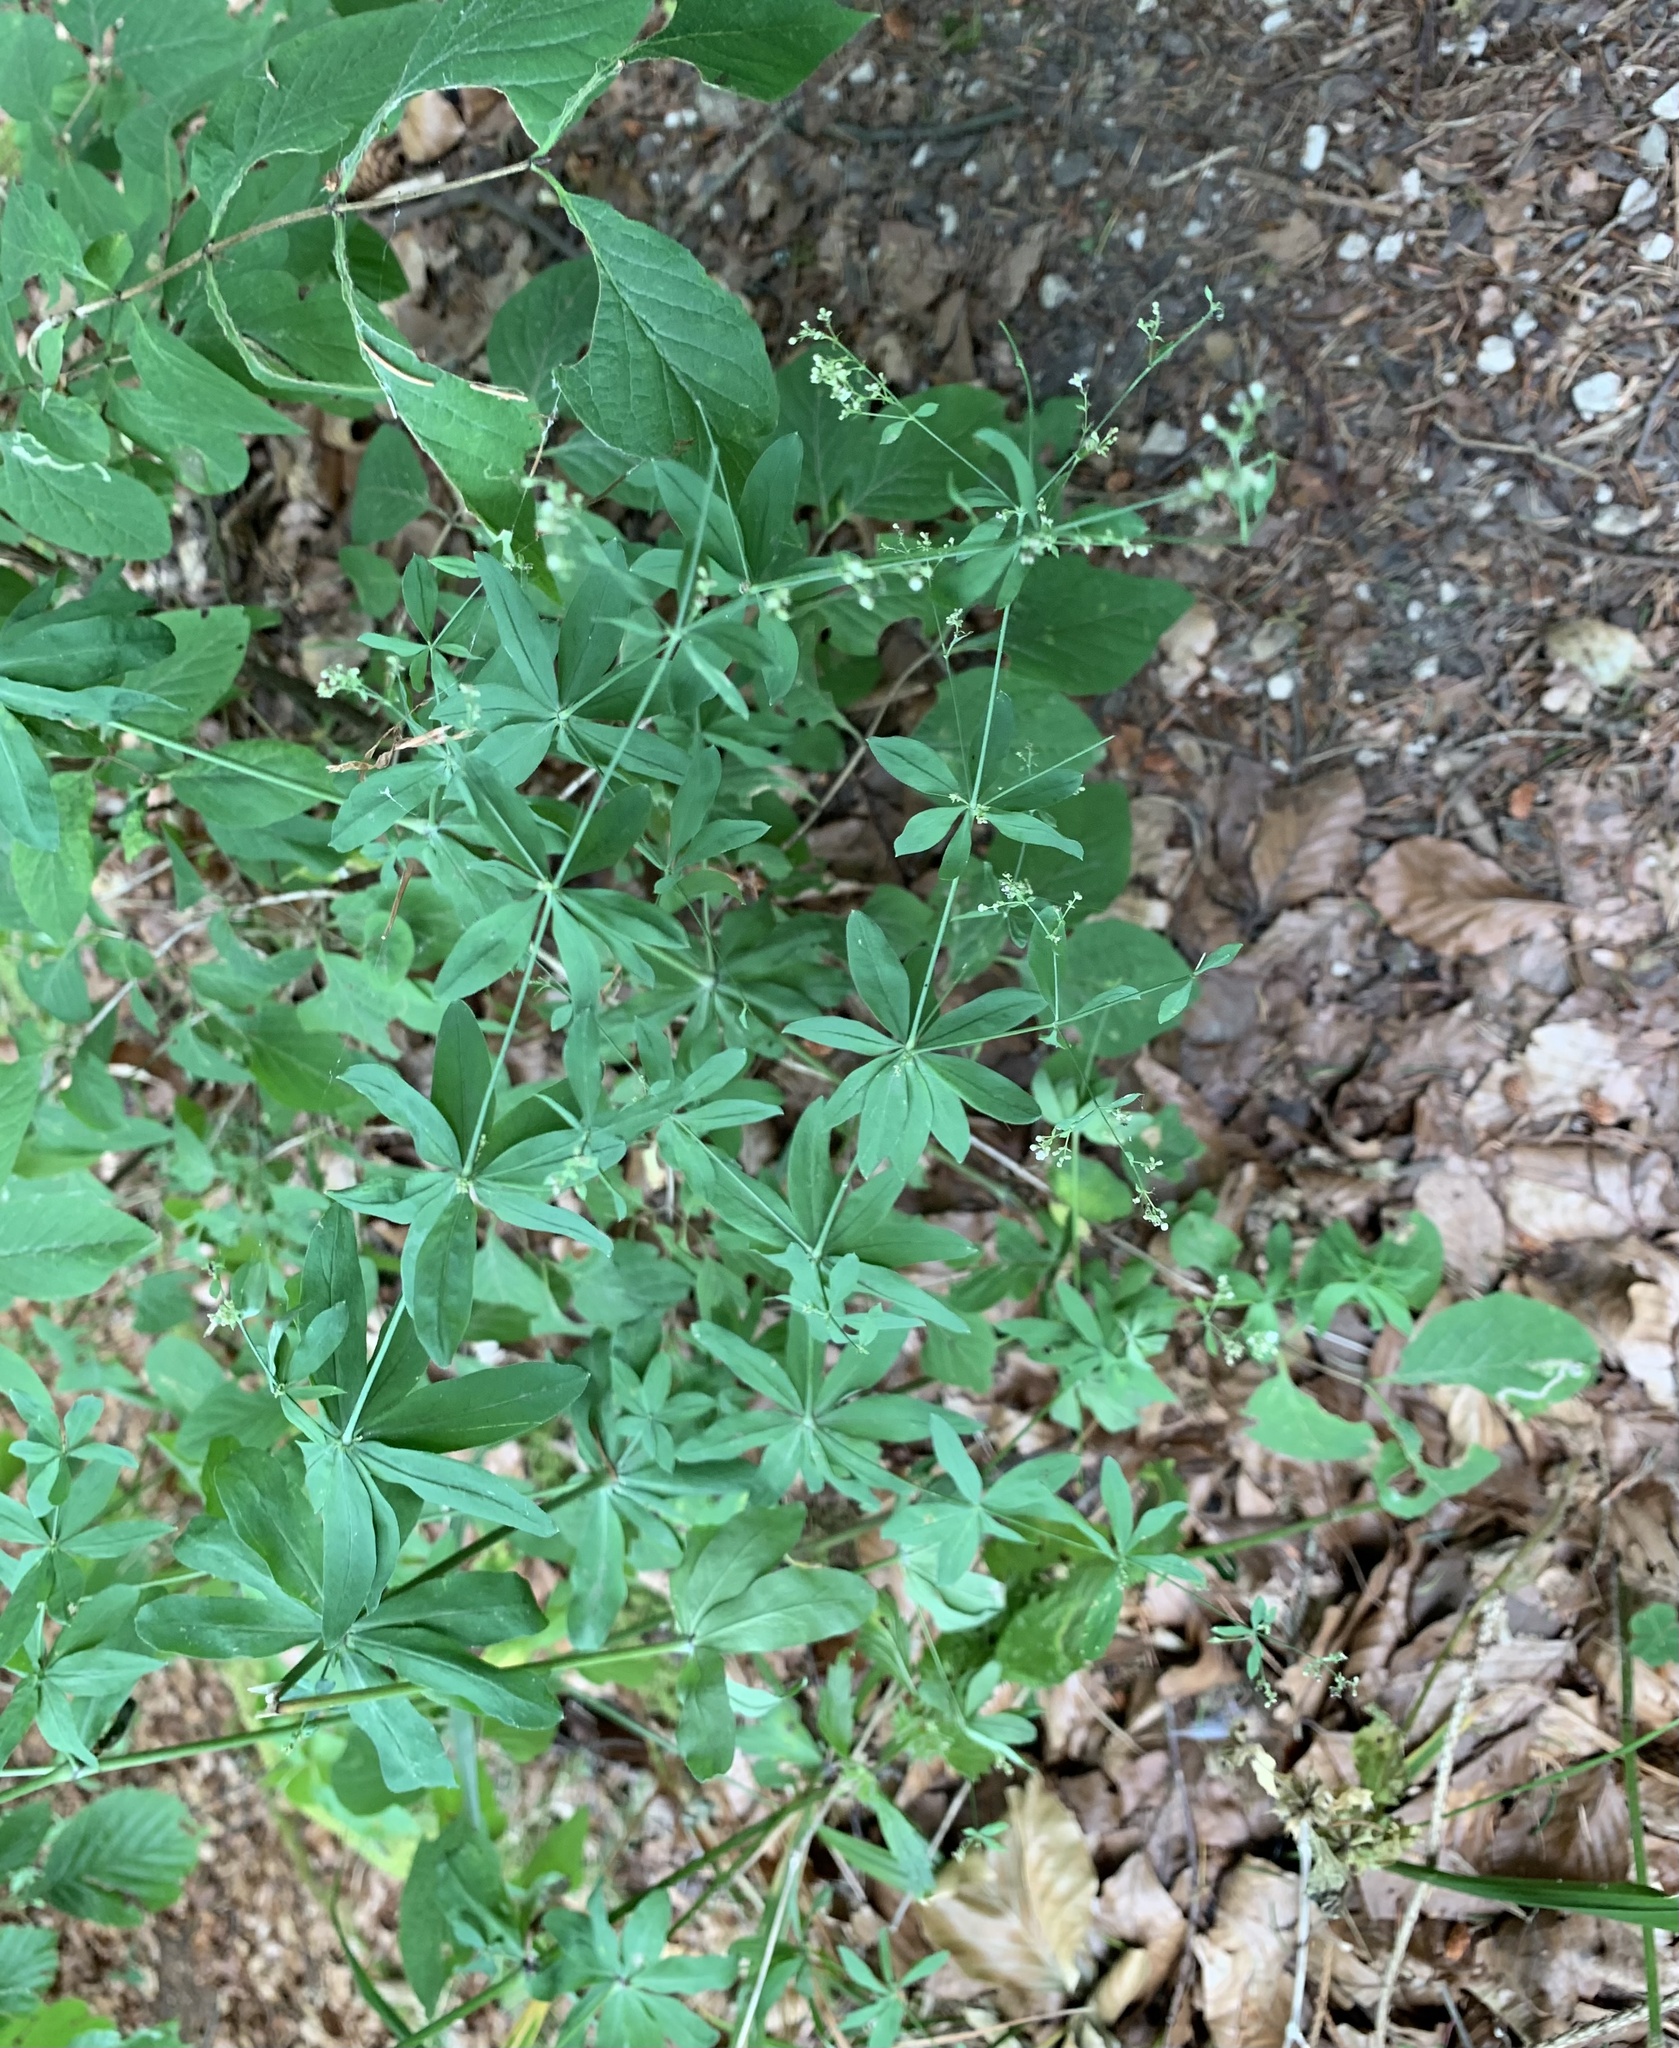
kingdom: Plantae
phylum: Tracheophyta
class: Magnoliopsida
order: Gentianales
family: Rubiaceae
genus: Galium
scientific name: Galium sylvaticum
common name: Wood bedstraw
